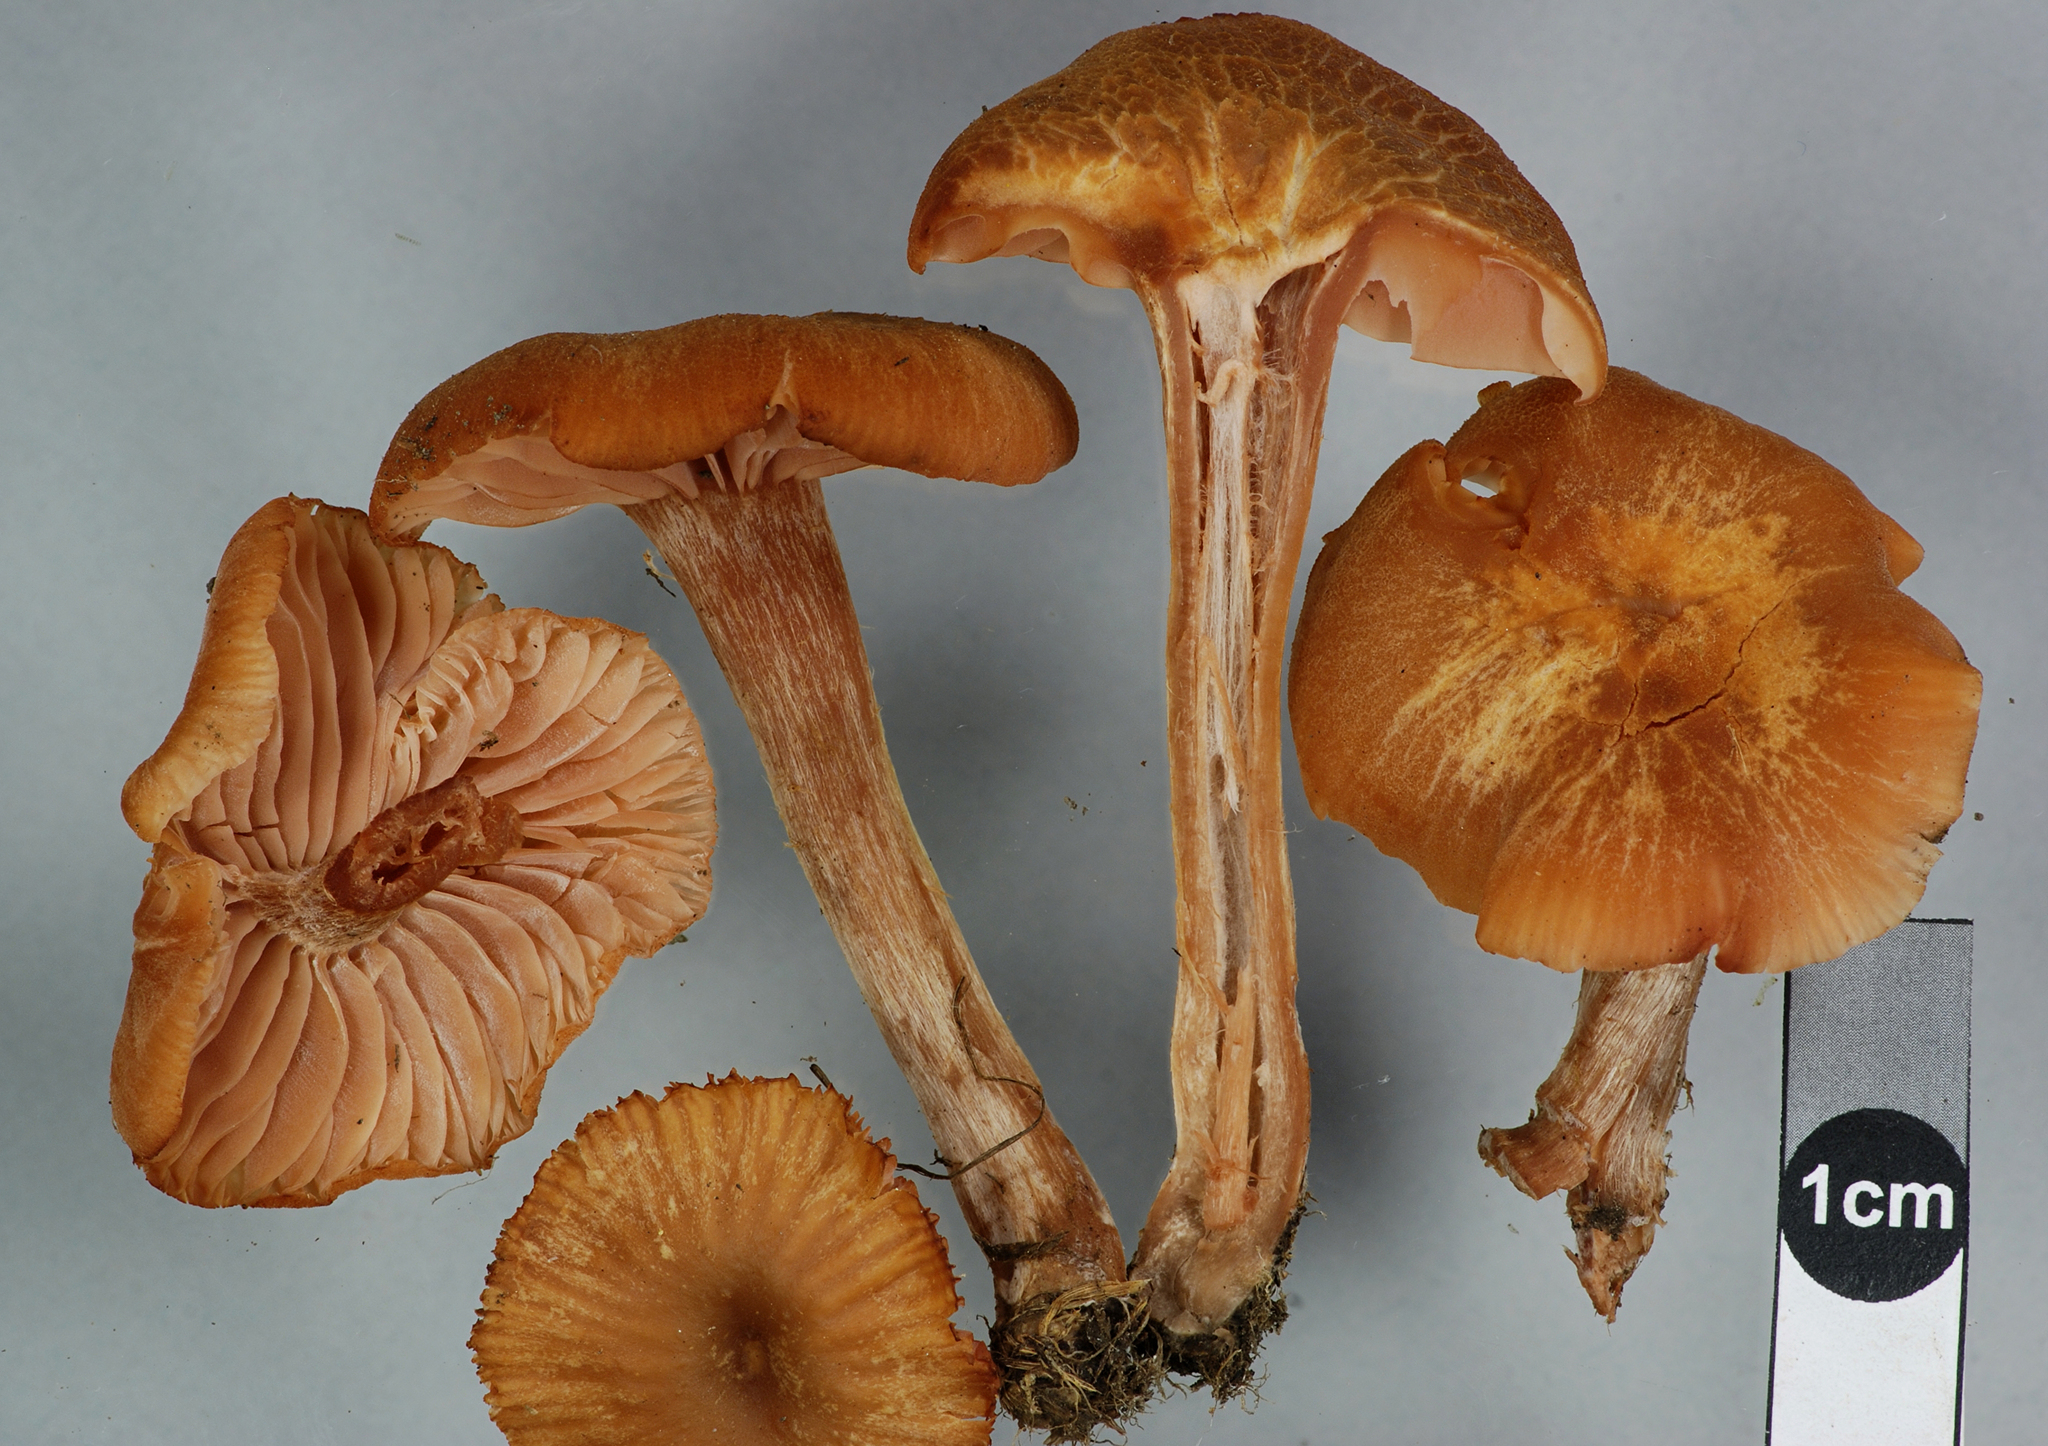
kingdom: Fungi
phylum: Basidiomycota
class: Agaricomycetes
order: Agaricales
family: Hydnangiaceae
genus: Laccaria
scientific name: Laccaria laccata
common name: Deceiver
